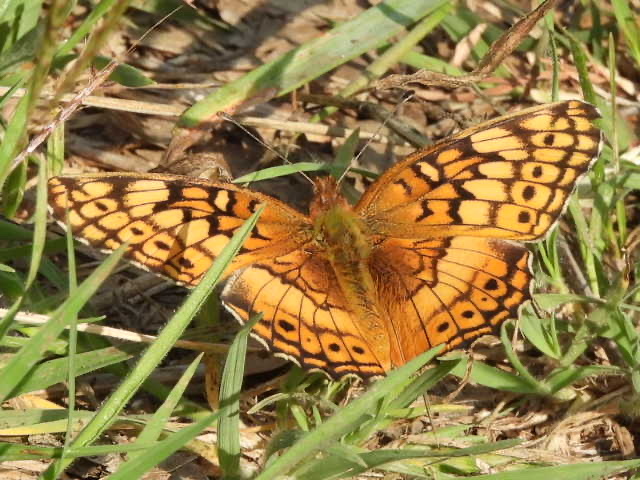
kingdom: Animalia
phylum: Arthropoda
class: Insecta
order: Lepidoptera
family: Nymphalidae
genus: Euptoieta
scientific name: Euptoieta claudia
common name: Variegated fritillary
